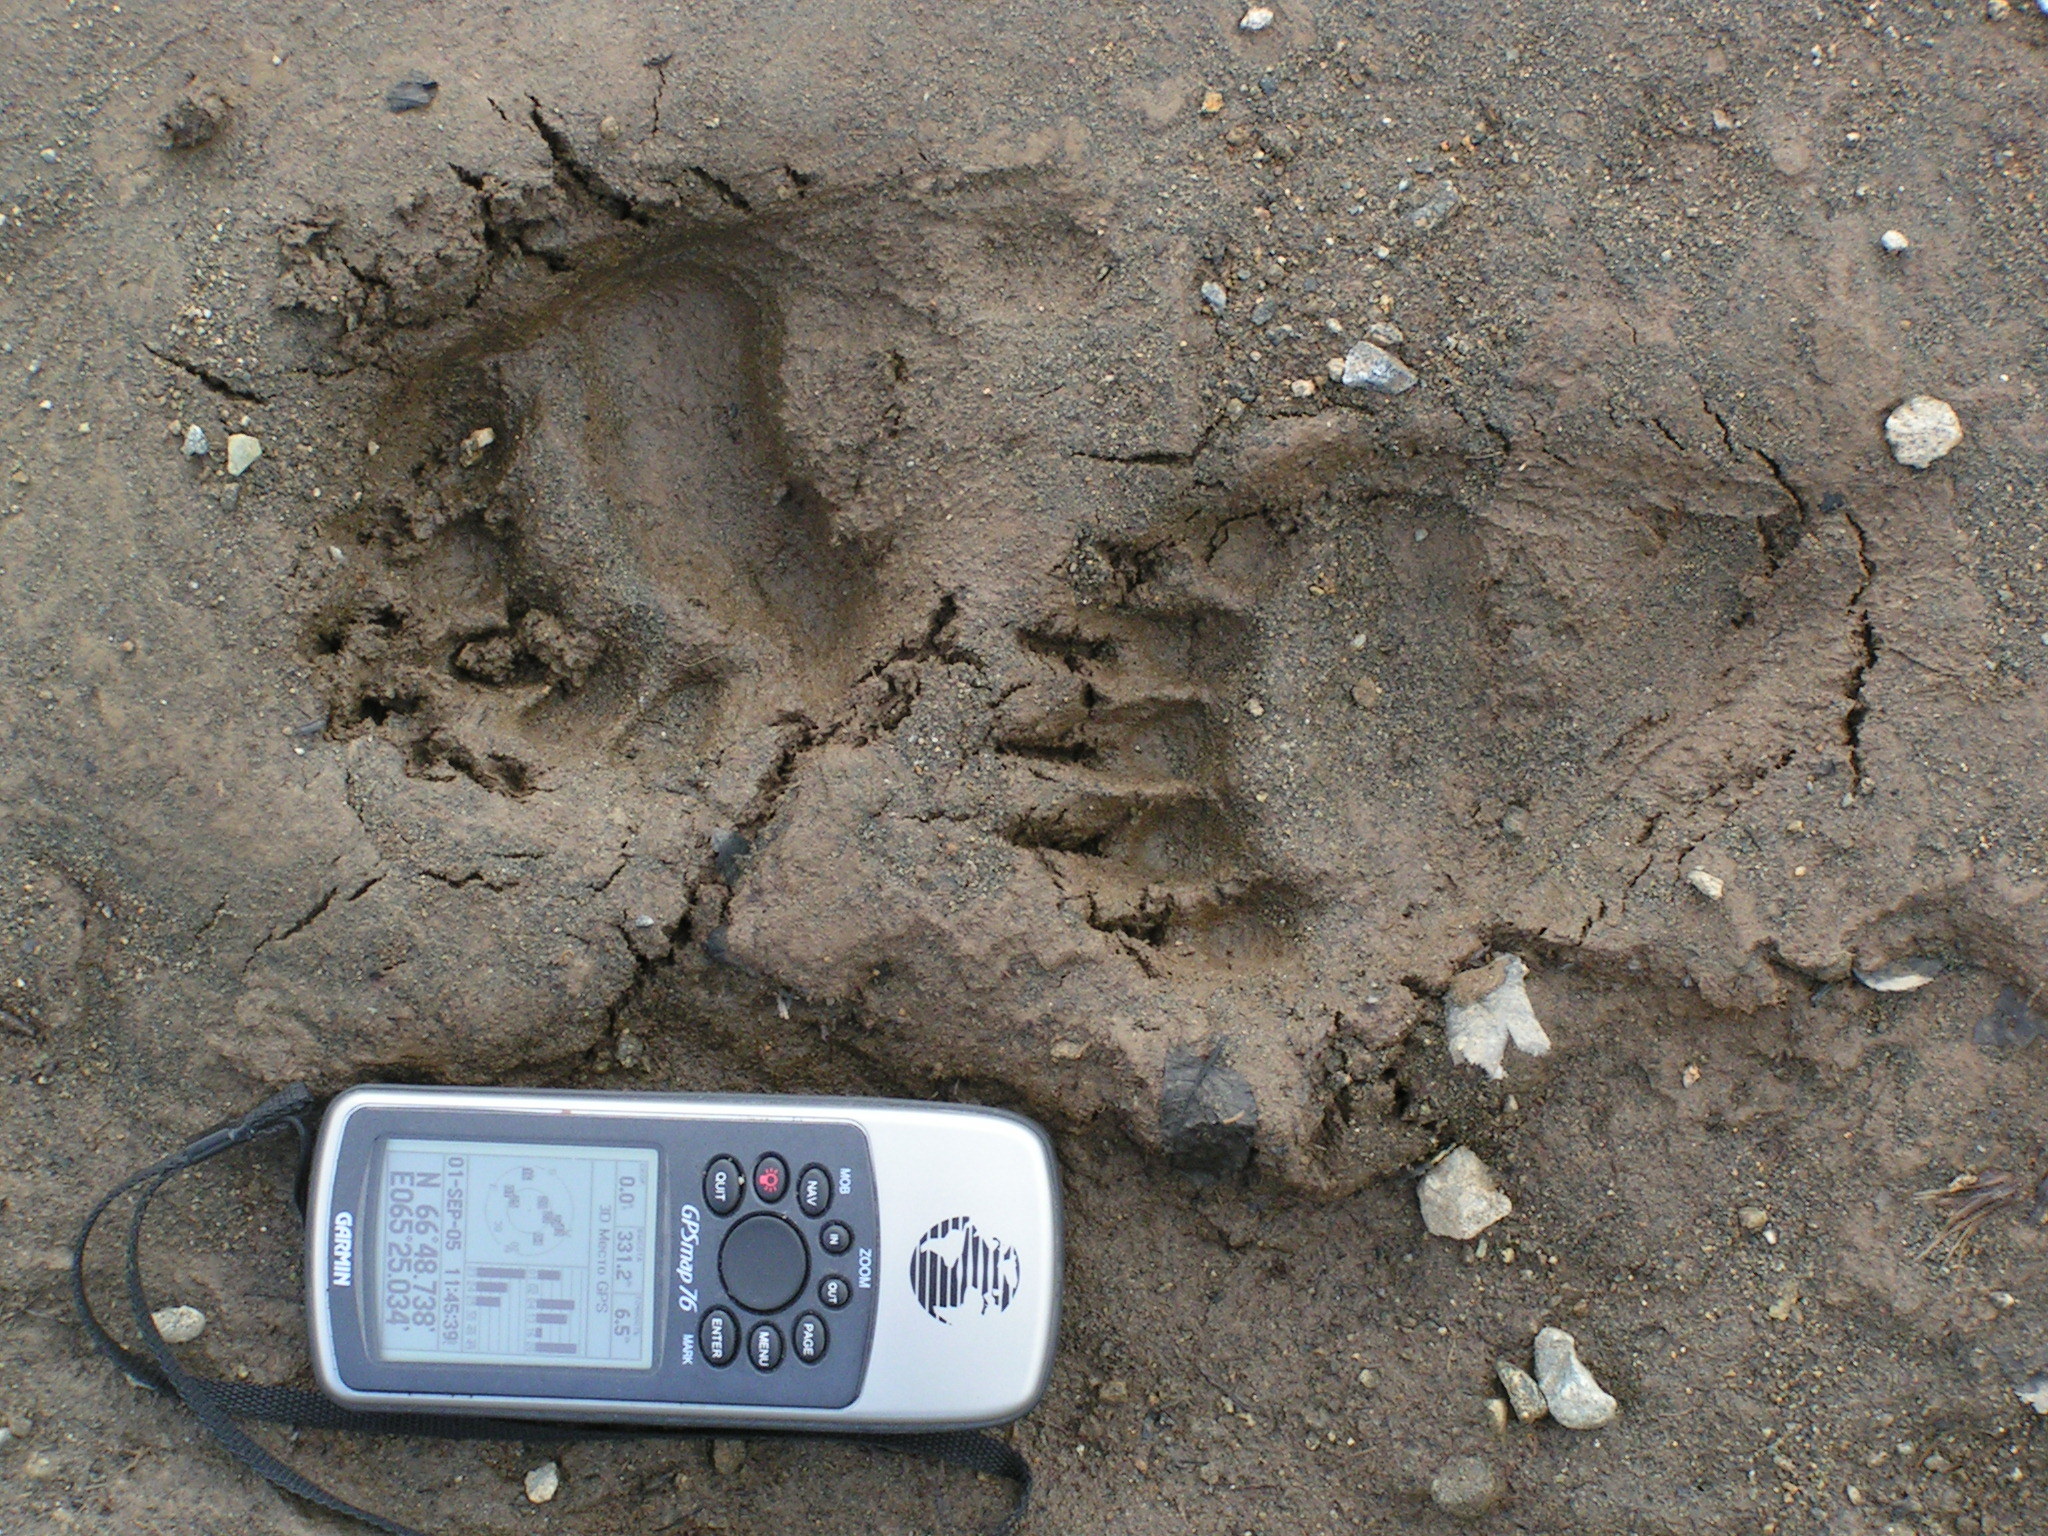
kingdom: Animalia
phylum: Chordata
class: Mammalia
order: Carnivora
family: Ursidae
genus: Ursus
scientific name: Ursus arctos
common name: Brown bear
